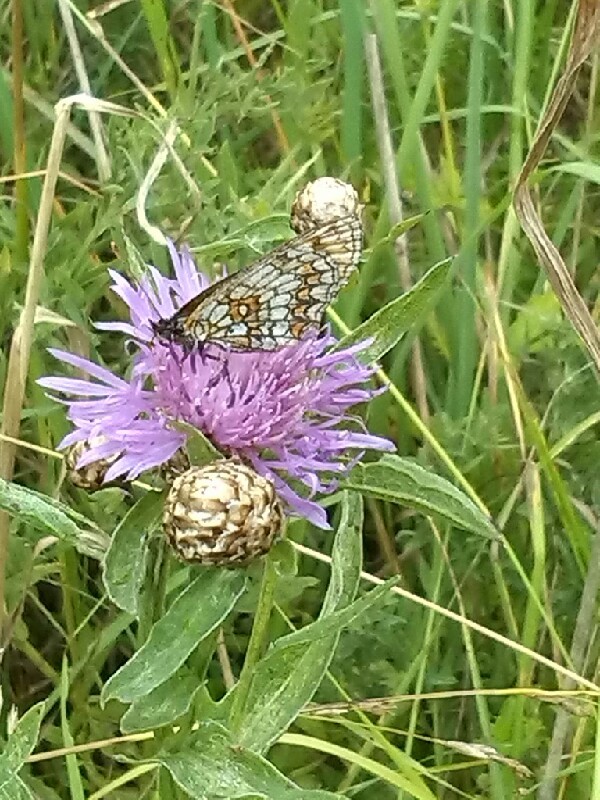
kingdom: Animalia
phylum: Arthropoda
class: Insecta
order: Lepidoptera
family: Nymphalidae
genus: Melitaea
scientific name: Melitaea athalia
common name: Heath fritillary
